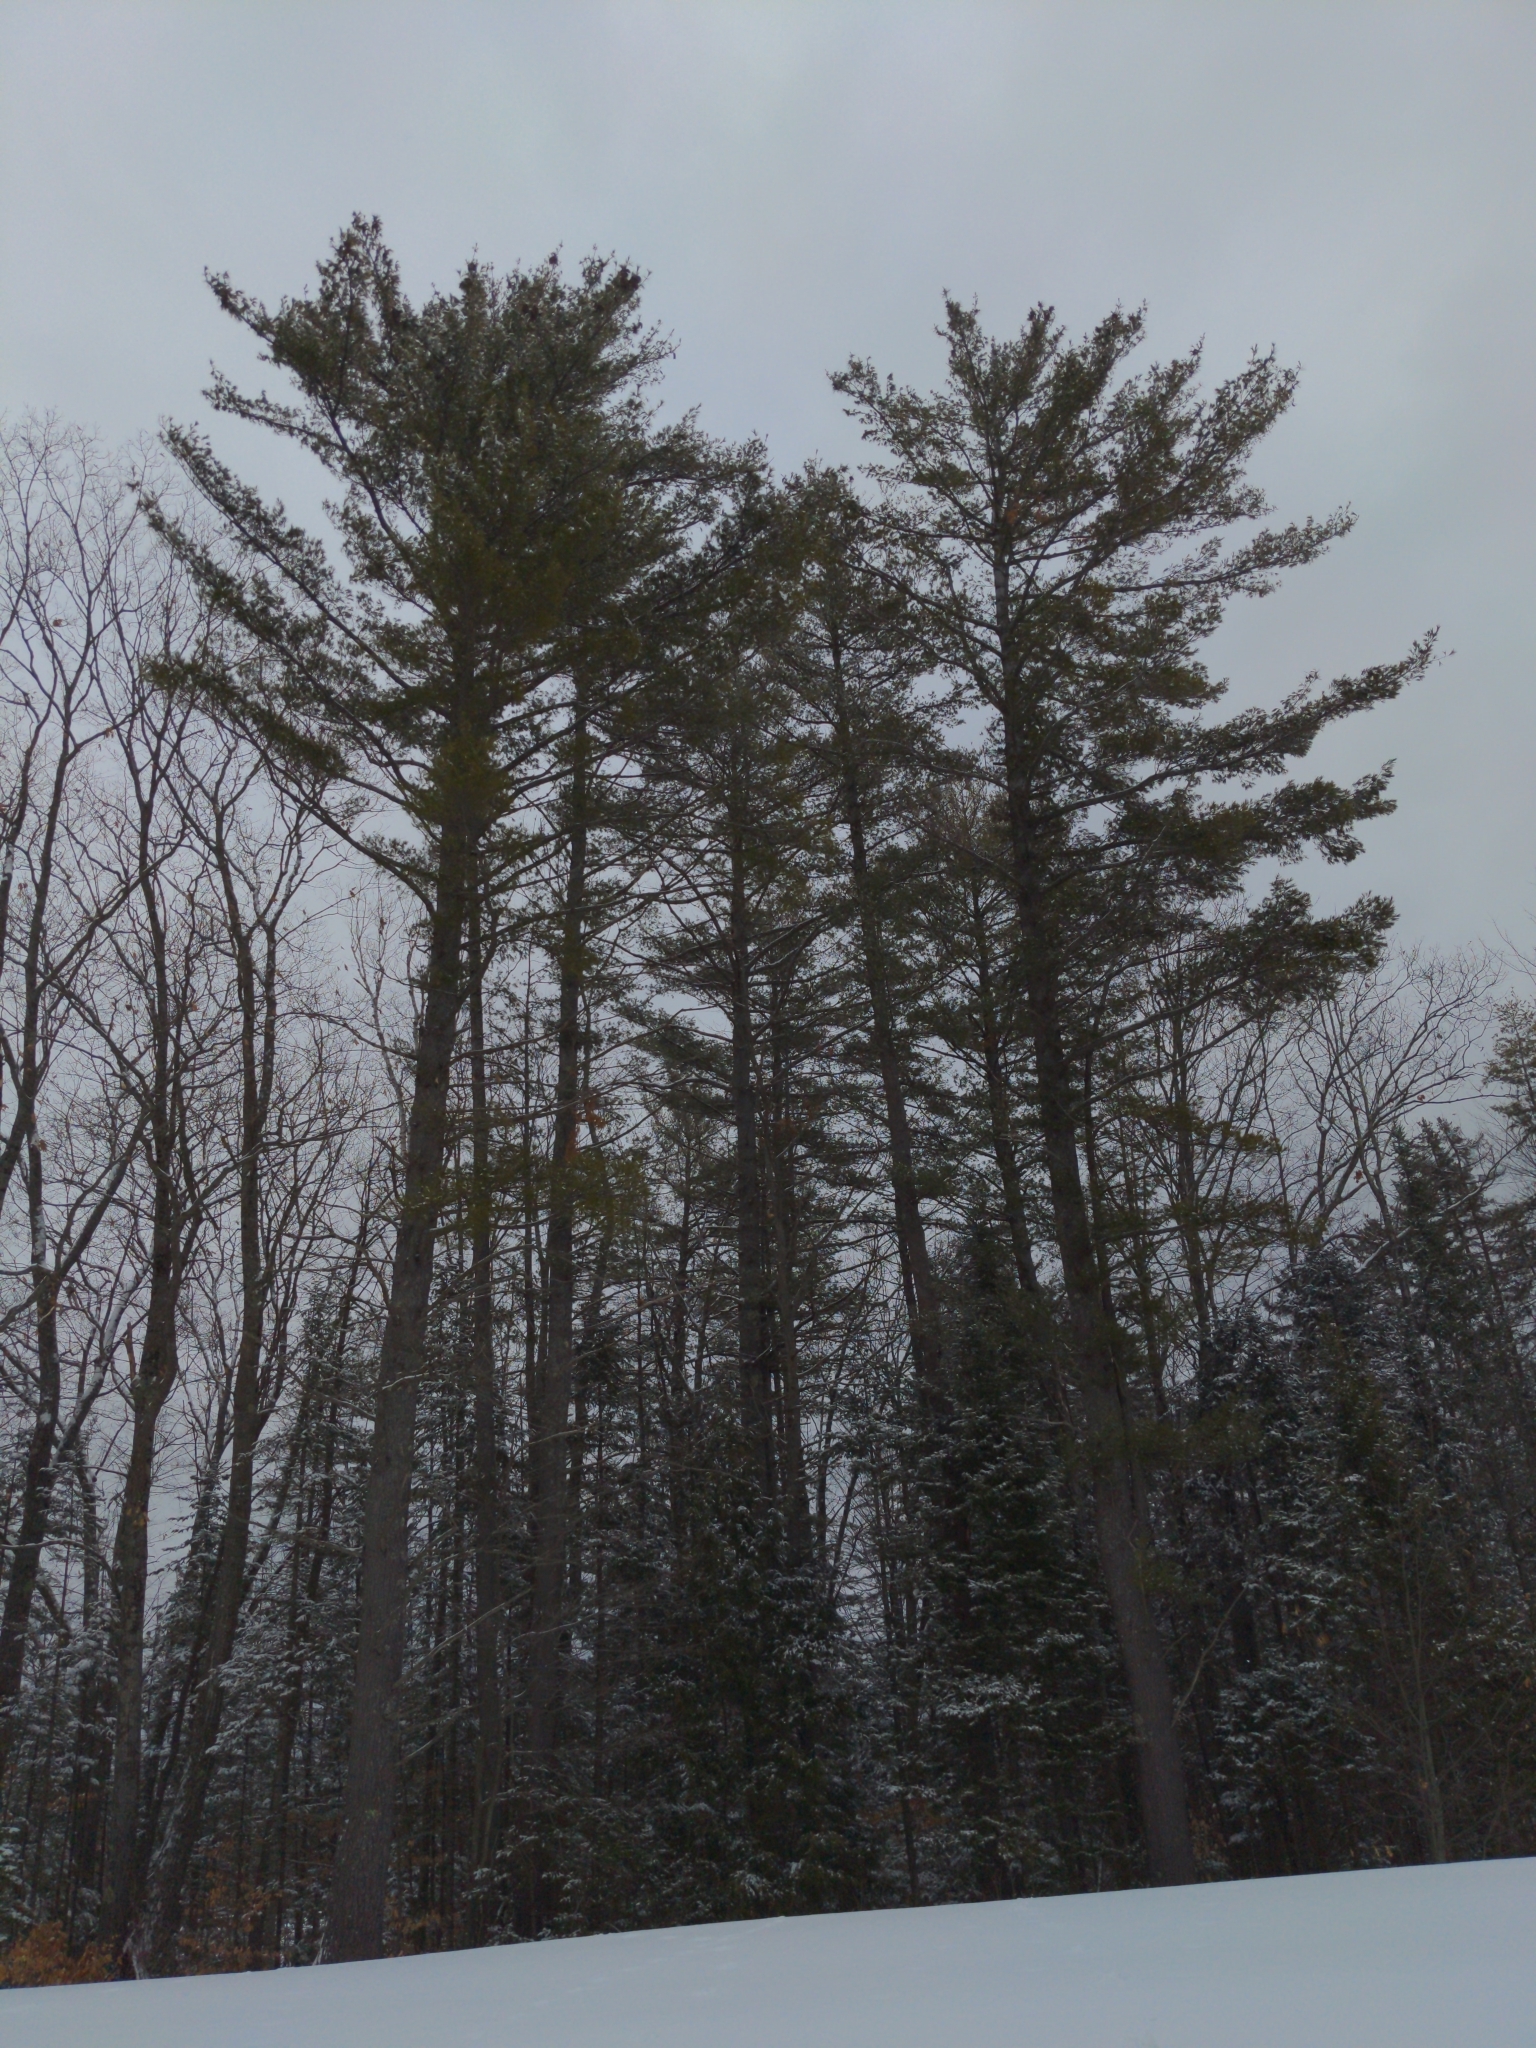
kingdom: Plantae
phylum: Tracheophyta
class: Pinopsida
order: Pinales
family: Pinaceae
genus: Pinus
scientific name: Pinus strobus
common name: Weymouth pine
